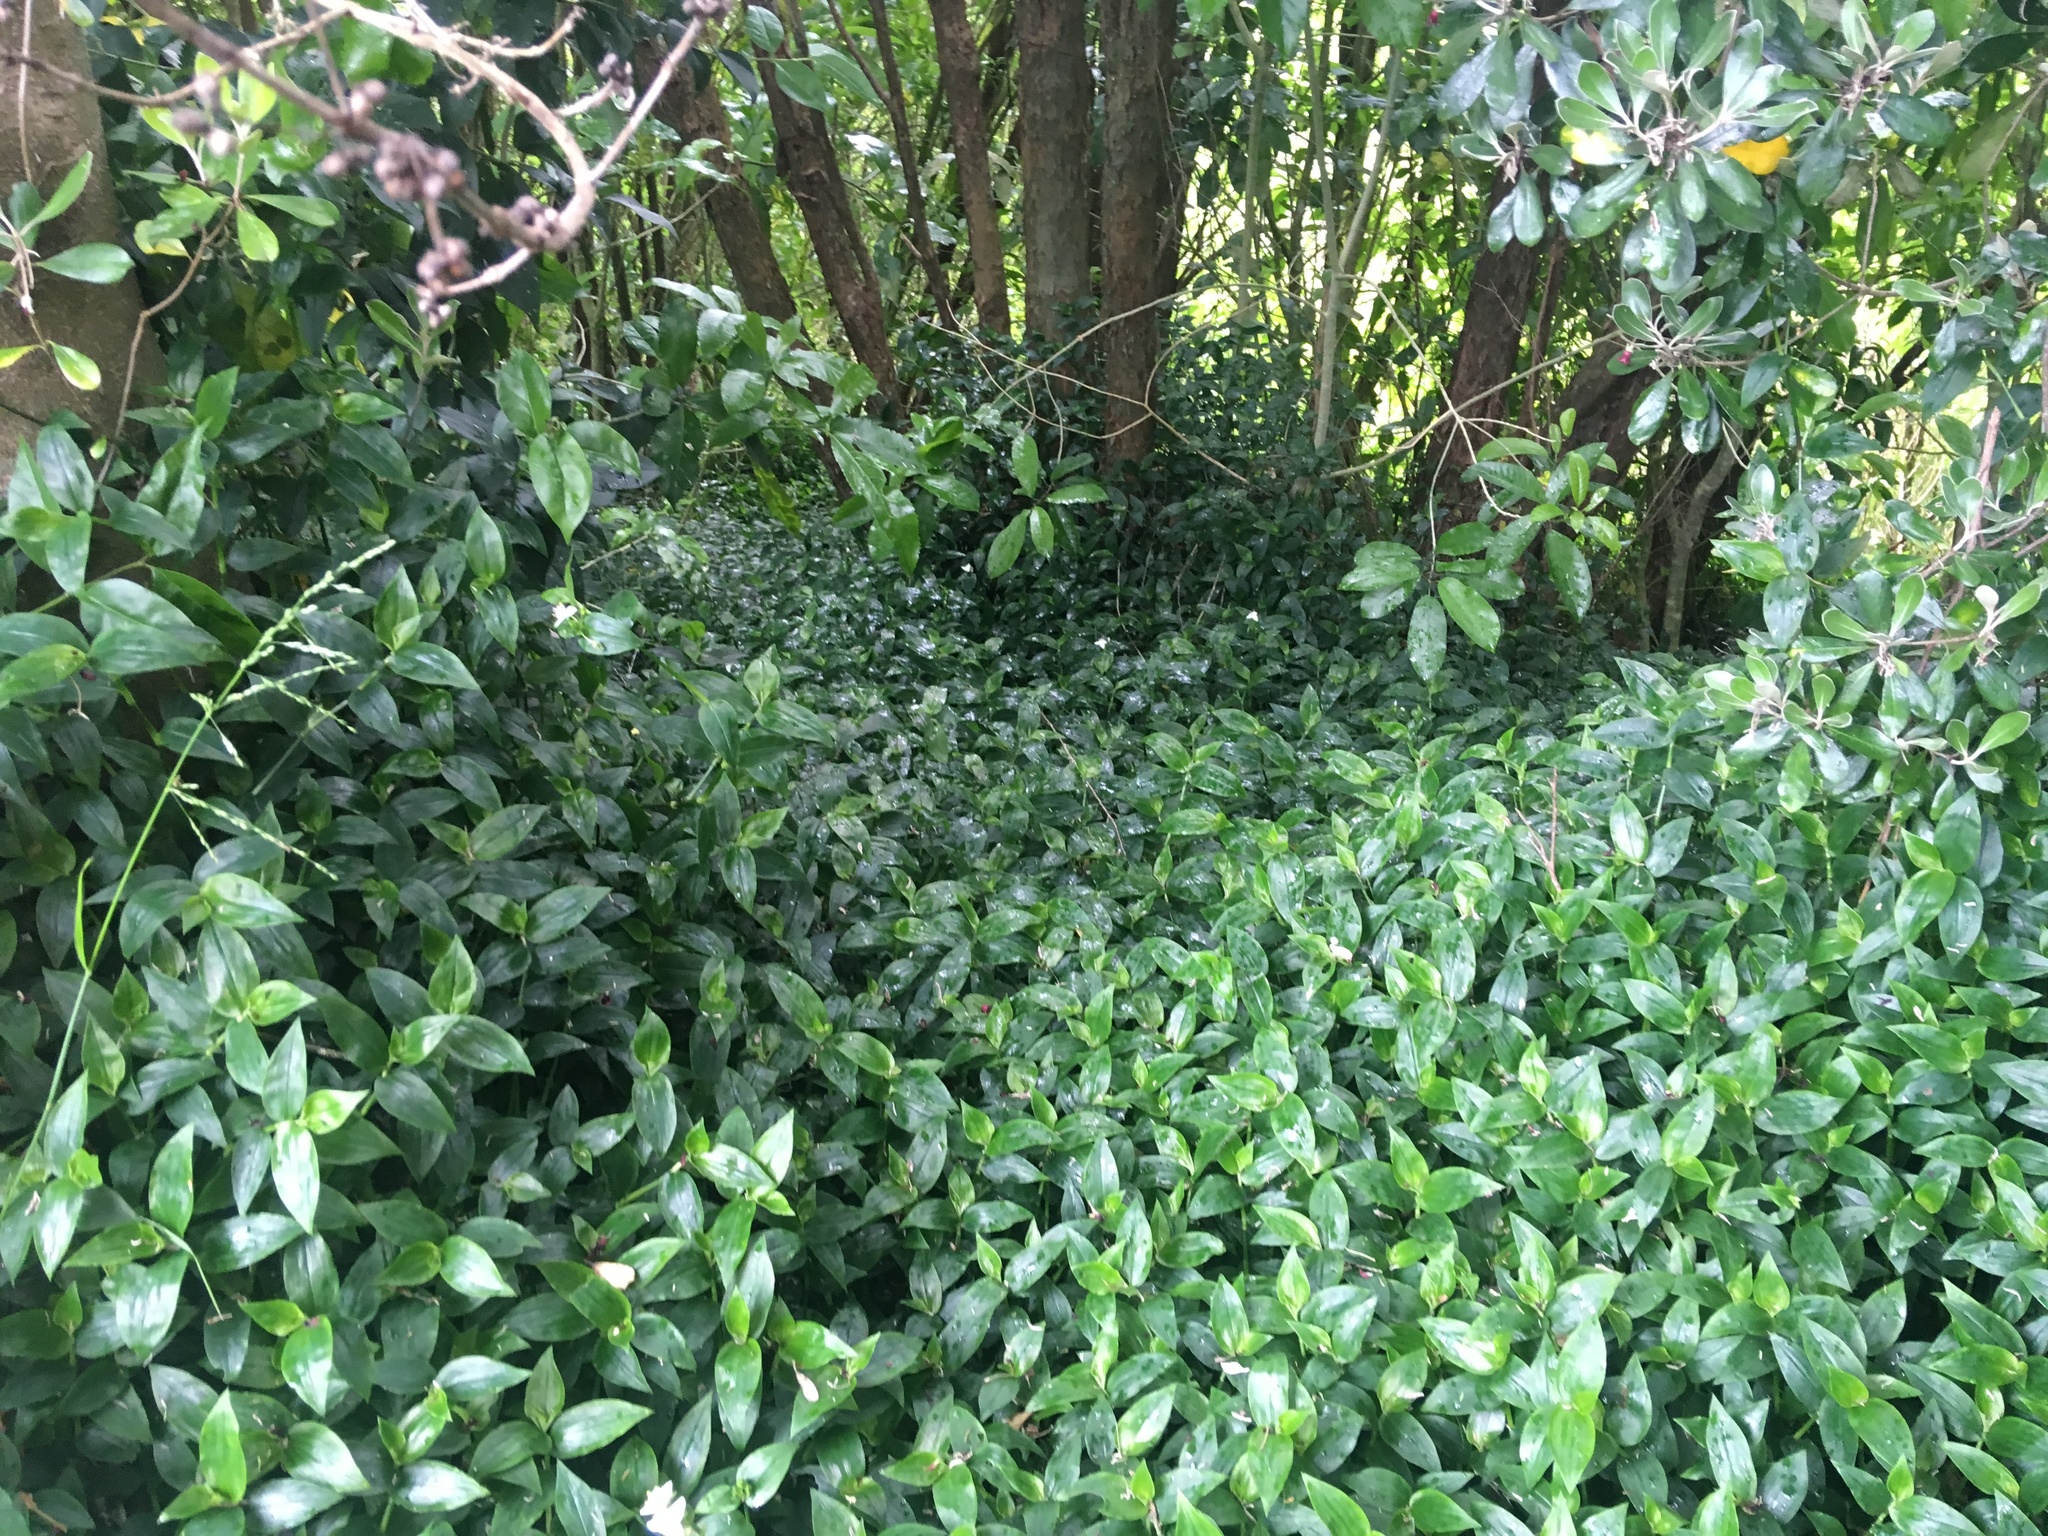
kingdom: Plantae
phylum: Tracheophyta
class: Liliopsida
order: Commelinales
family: Commelinaceae
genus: Tradescantia
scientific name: Tradescantia fluminensis
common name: Wandering-jew
